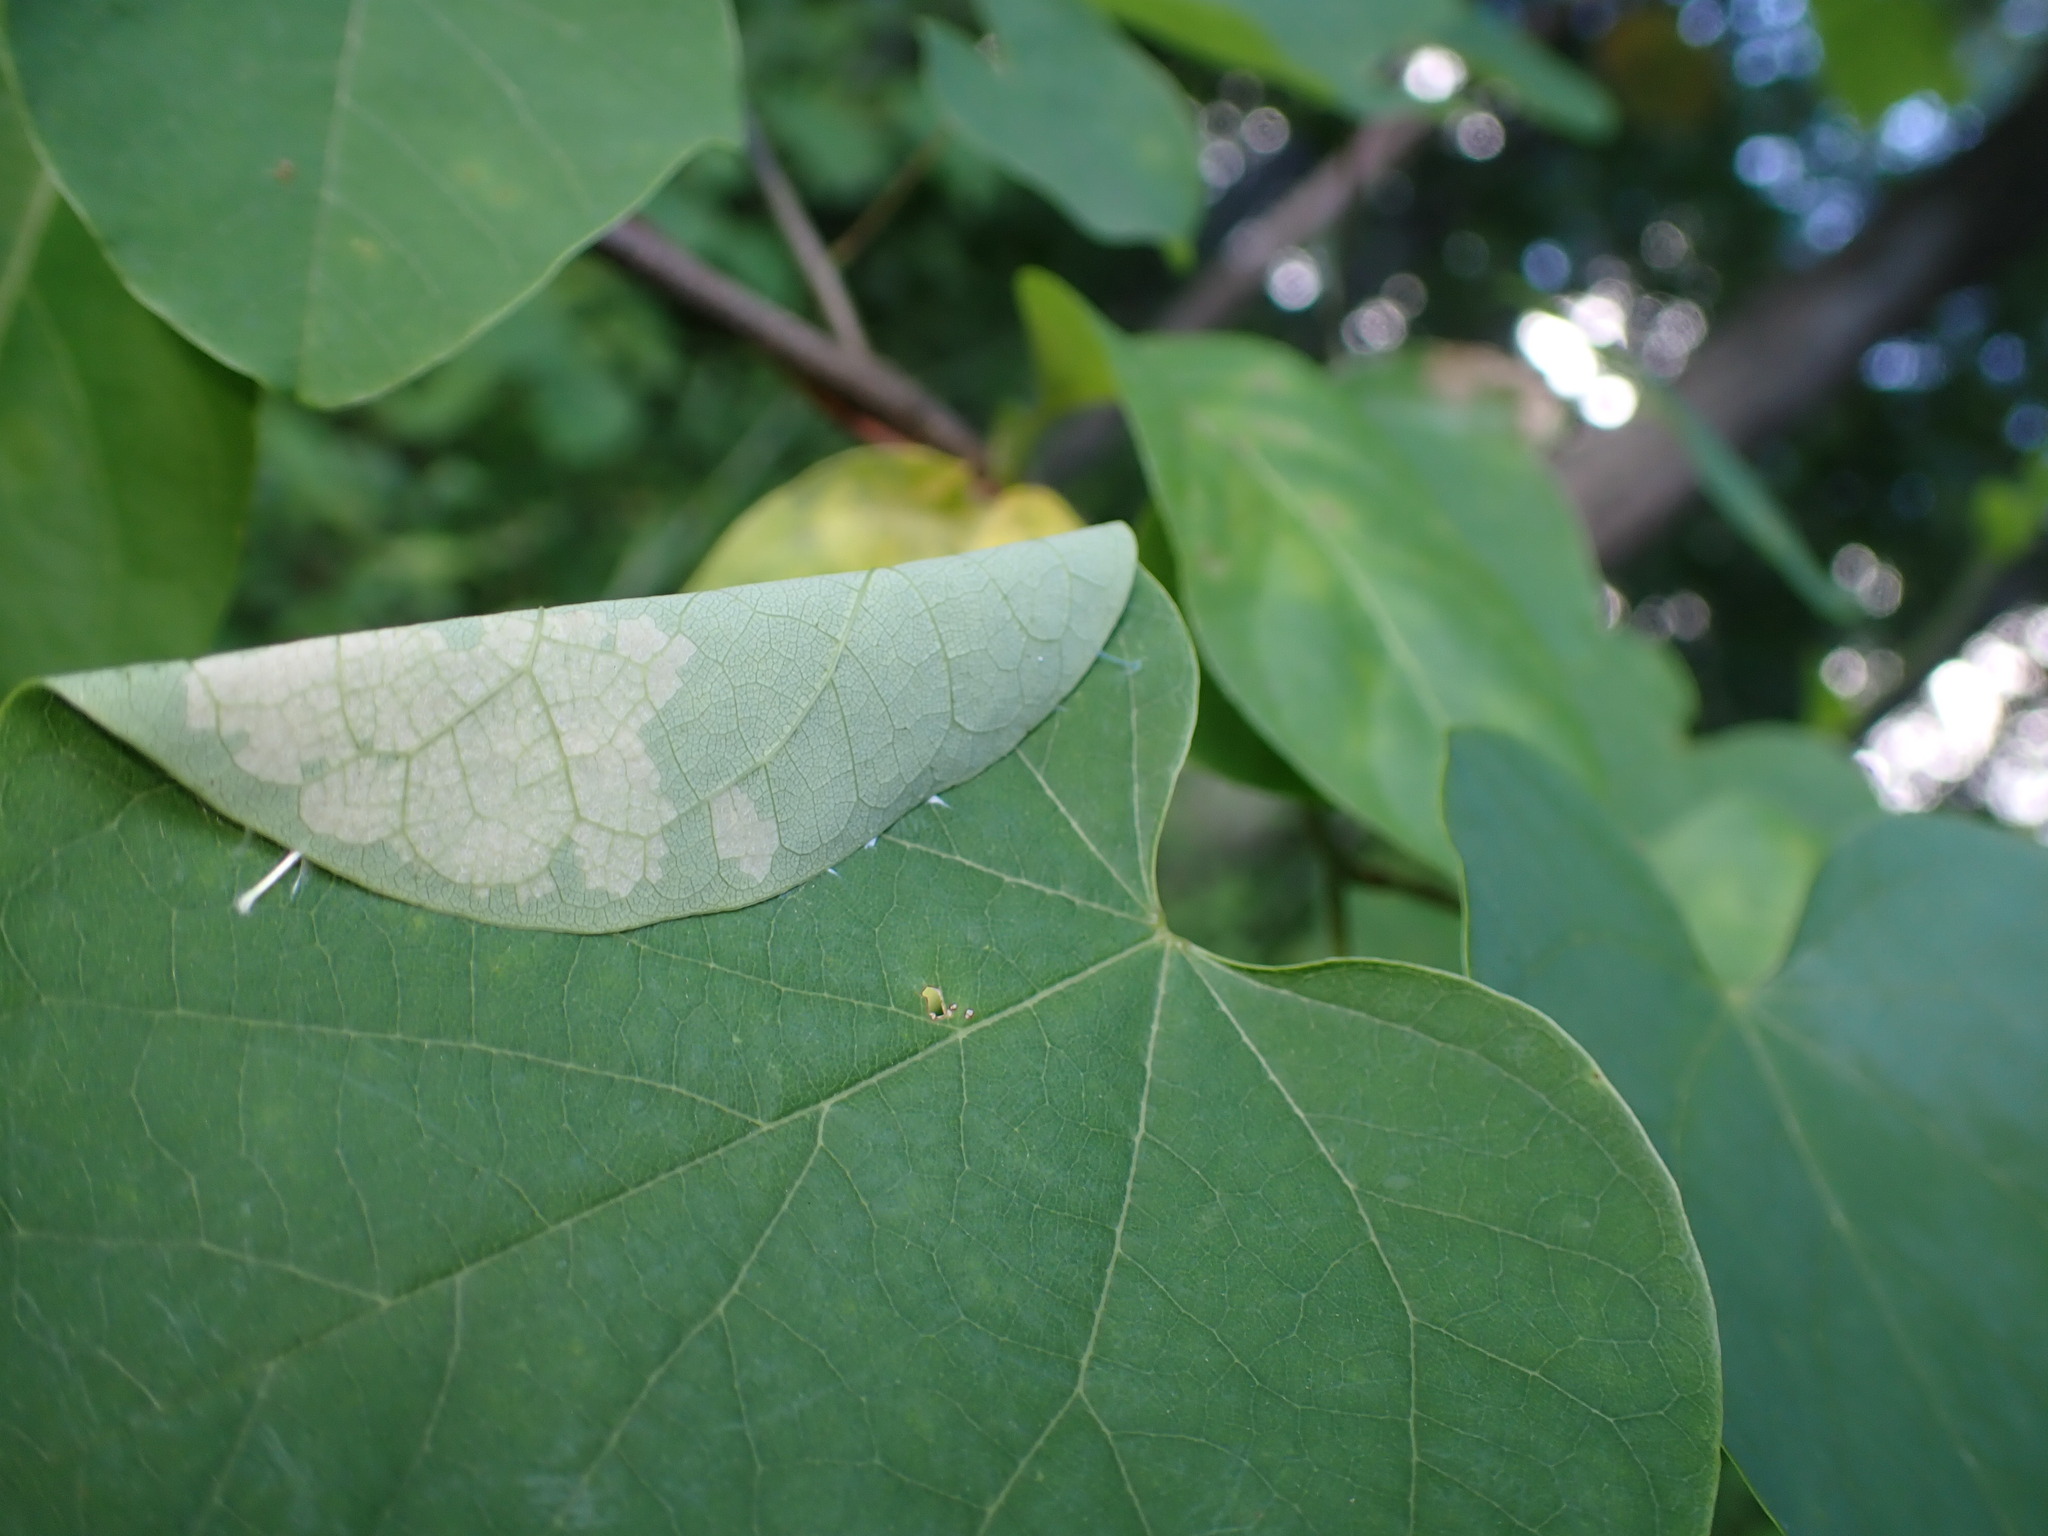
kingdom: Animalia
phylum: Arthropoda
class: Insecta
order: Lepidoptera
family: Gelechiidae
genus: Fascista
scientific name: Fascista cercerisella
